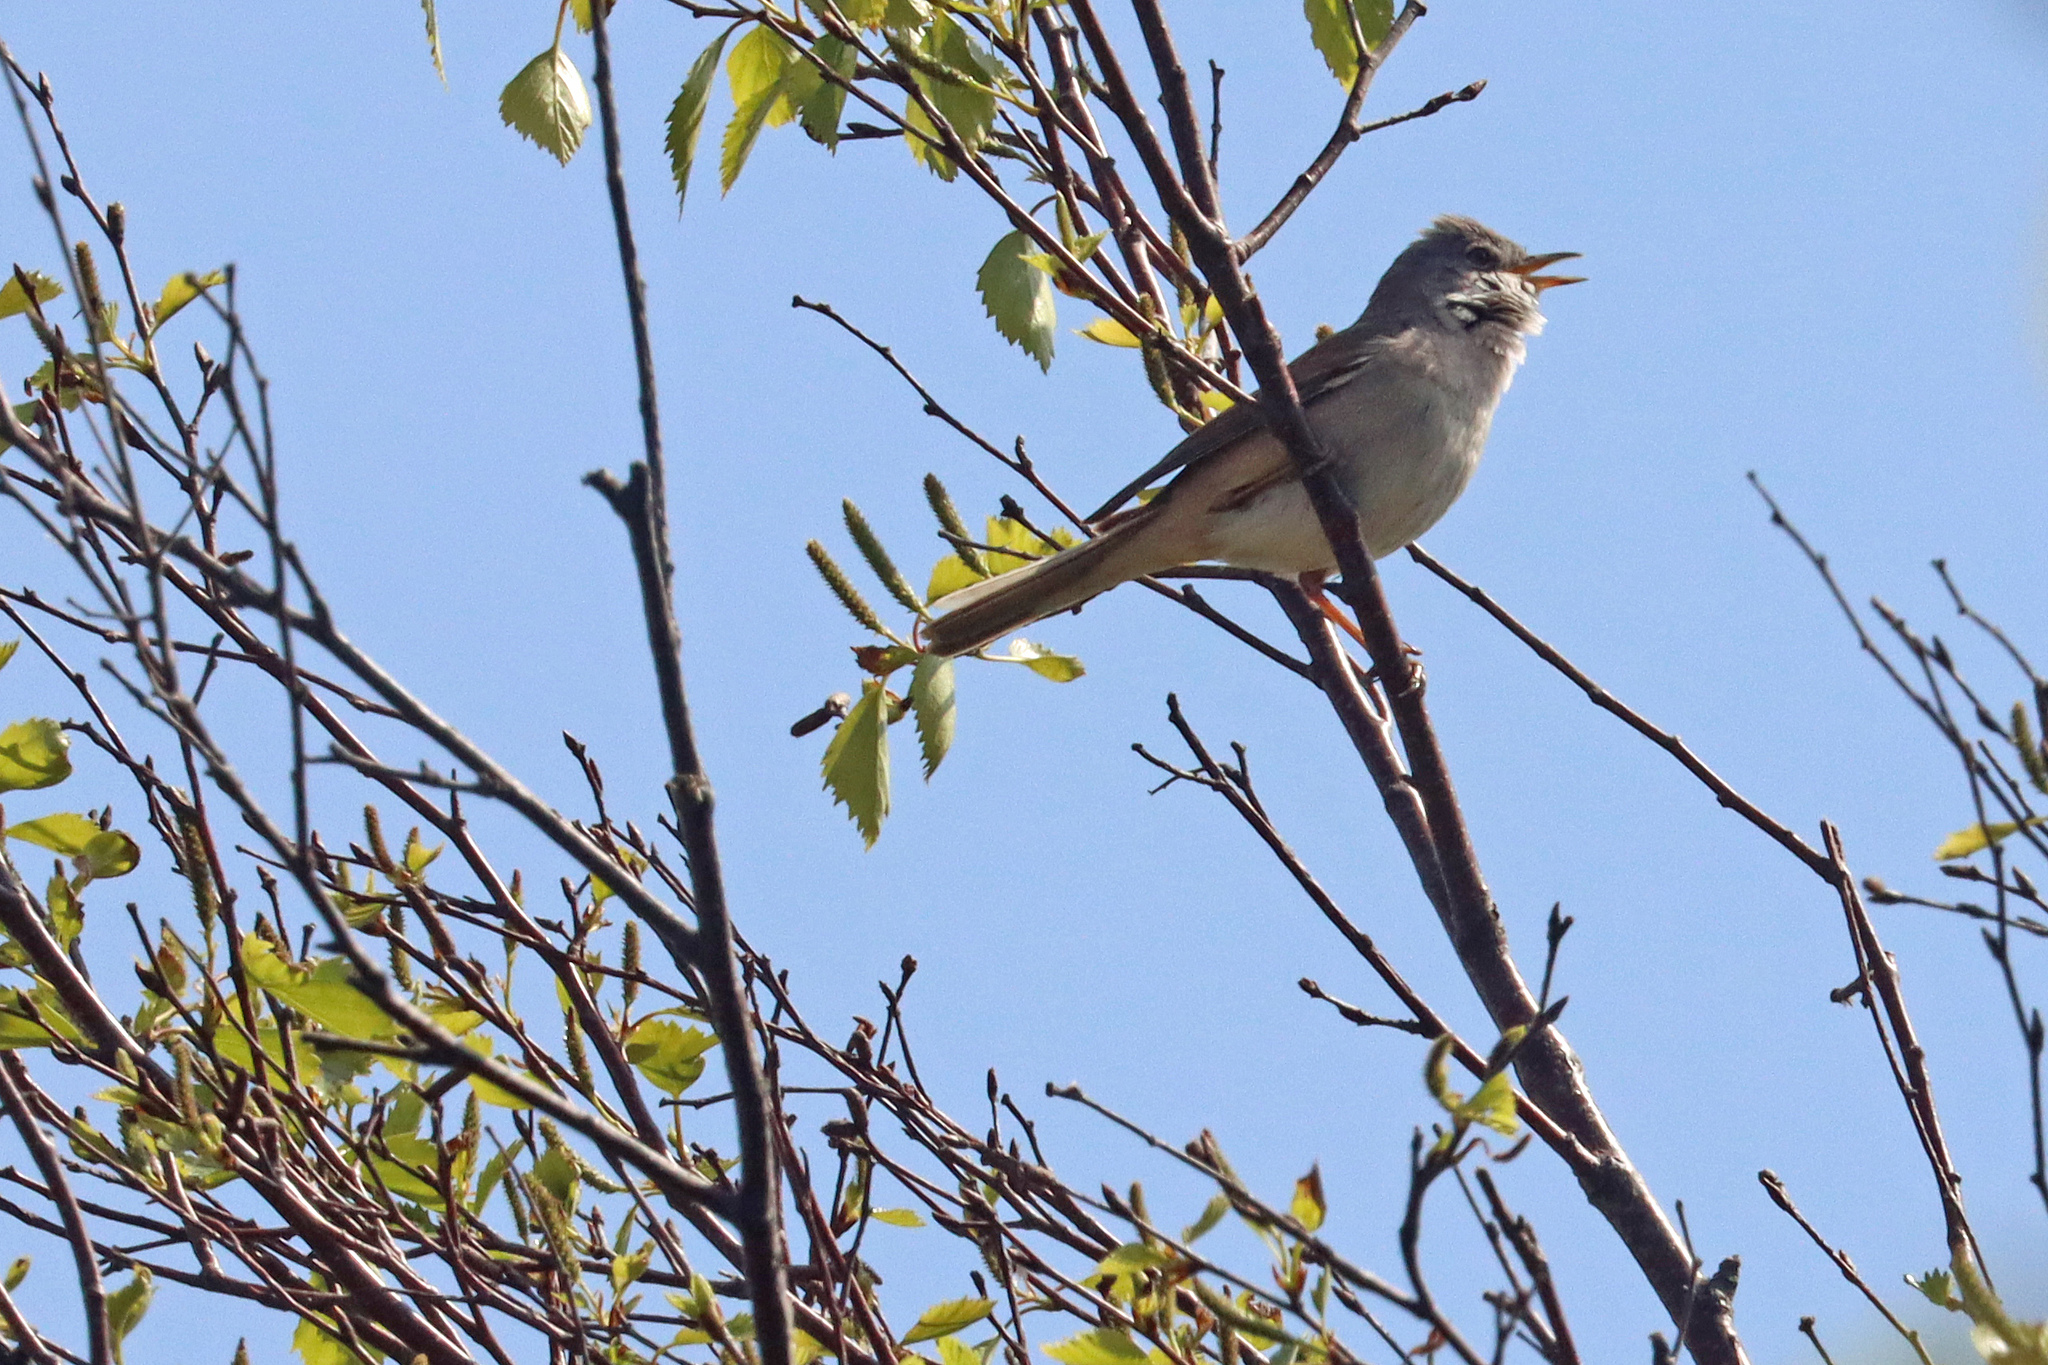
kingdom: Animalia
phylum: Chordata
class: Aves
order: Passeriformes
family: Sylviidae
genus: Sylvia
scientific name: Sylvia communis
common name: Common whitethroat
